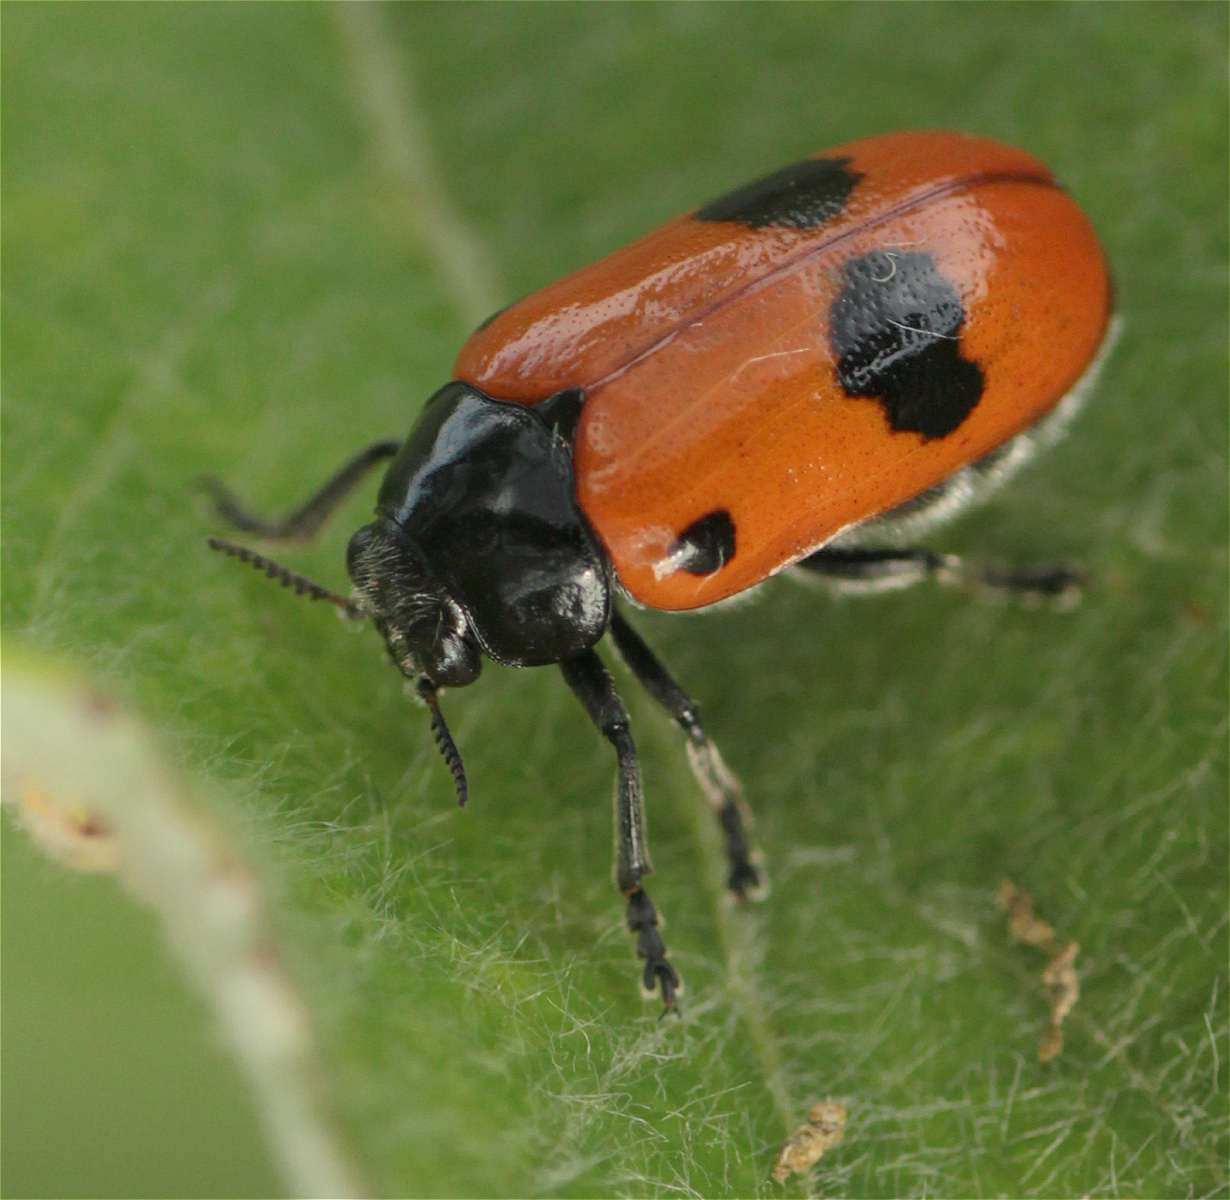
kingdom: Animalia
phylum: Arthropoda
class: Insecta
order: Coleoptera
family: Chrysomelidae
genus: Clytra
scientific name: Clytra laeviuscula
